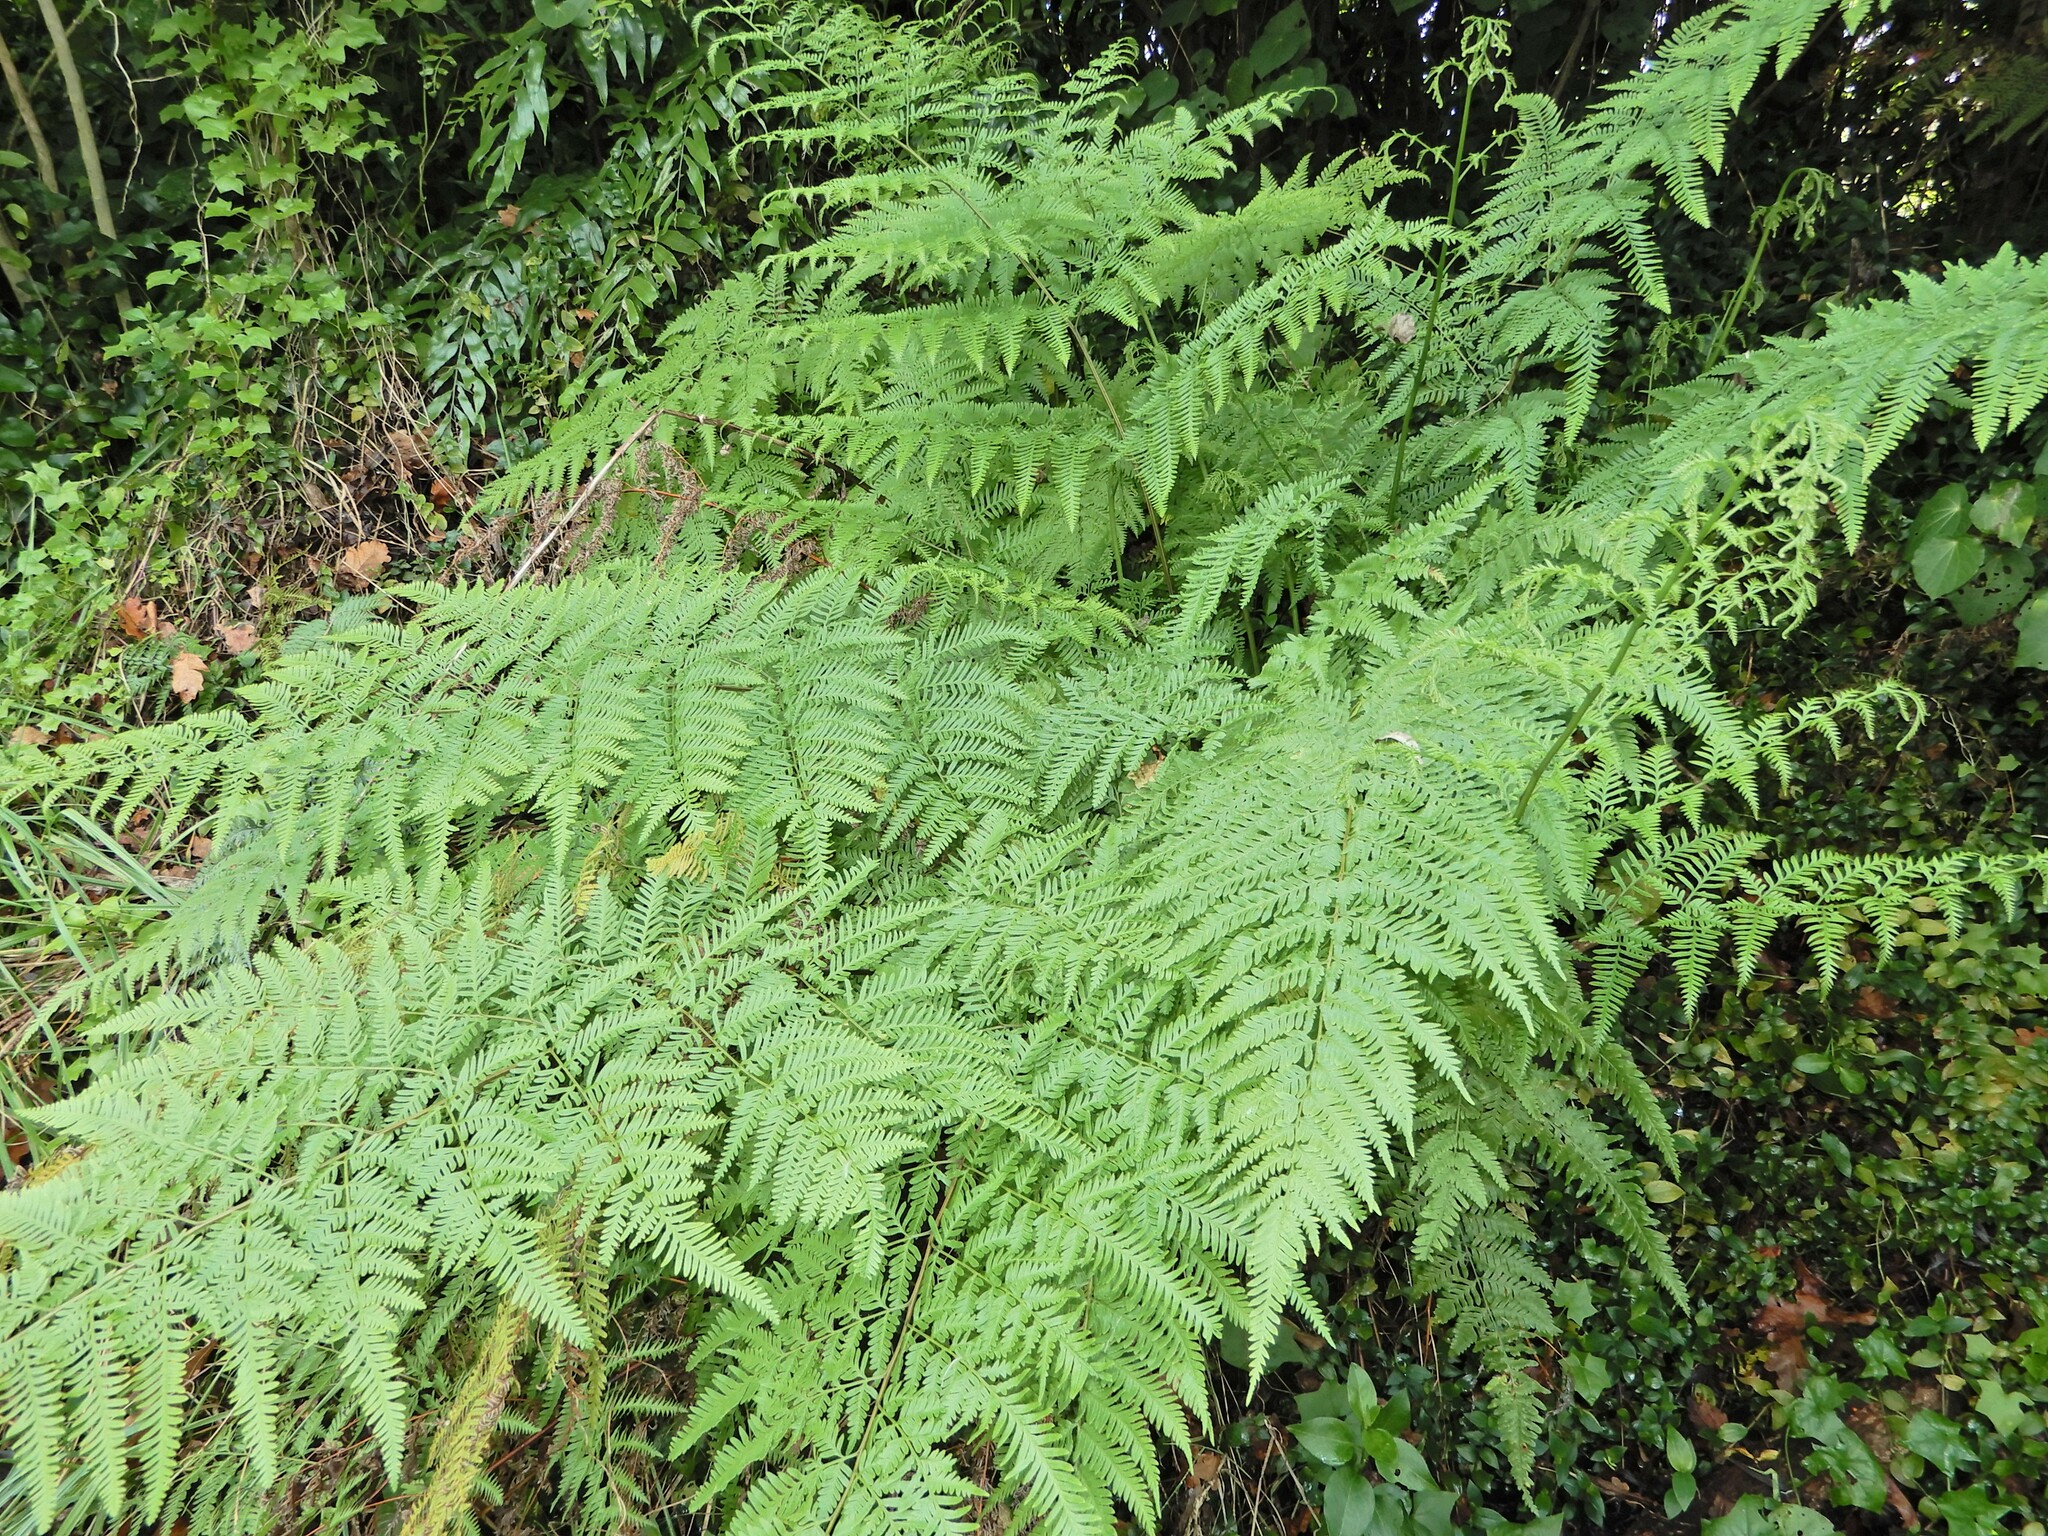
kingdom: Plantae
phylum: Tracheophyta
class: Polypodiopsida
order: Polypodiales
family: Pteridaceae
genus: Pteris
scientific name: Pteris tremula
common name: Australian brake
